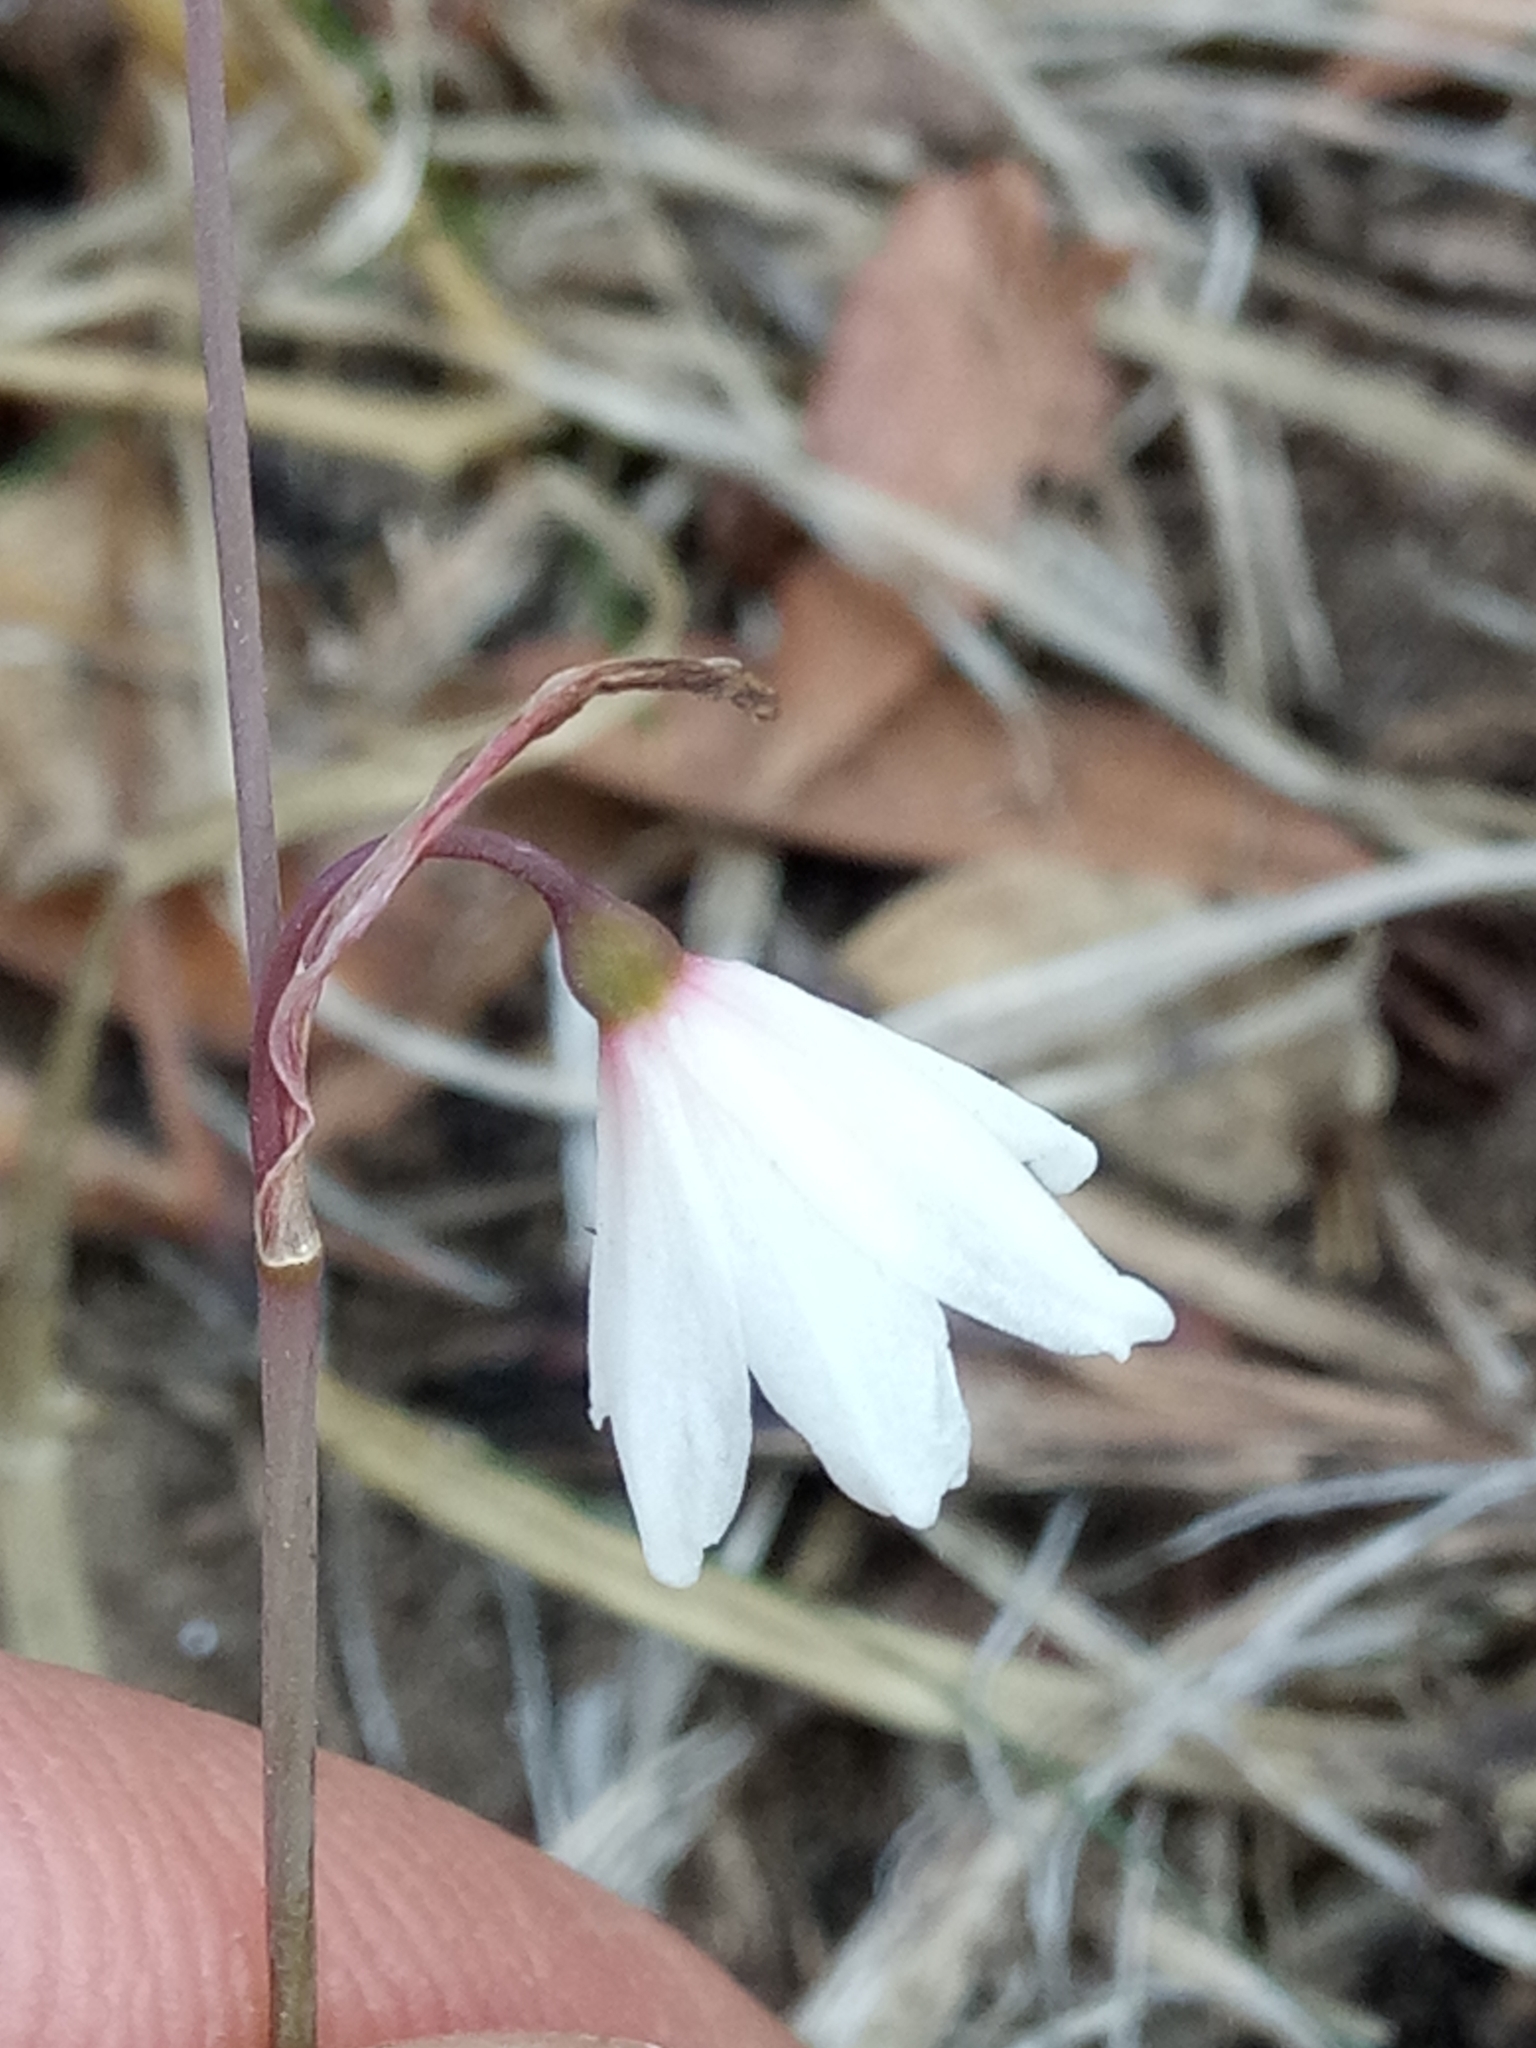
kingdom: Plantae
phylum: Tracheophyta
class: Liliopsida
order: Asparagales
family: Amaryllidaceae
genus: Acis
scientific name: Acis autumnalis
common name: Autumn snowflake
